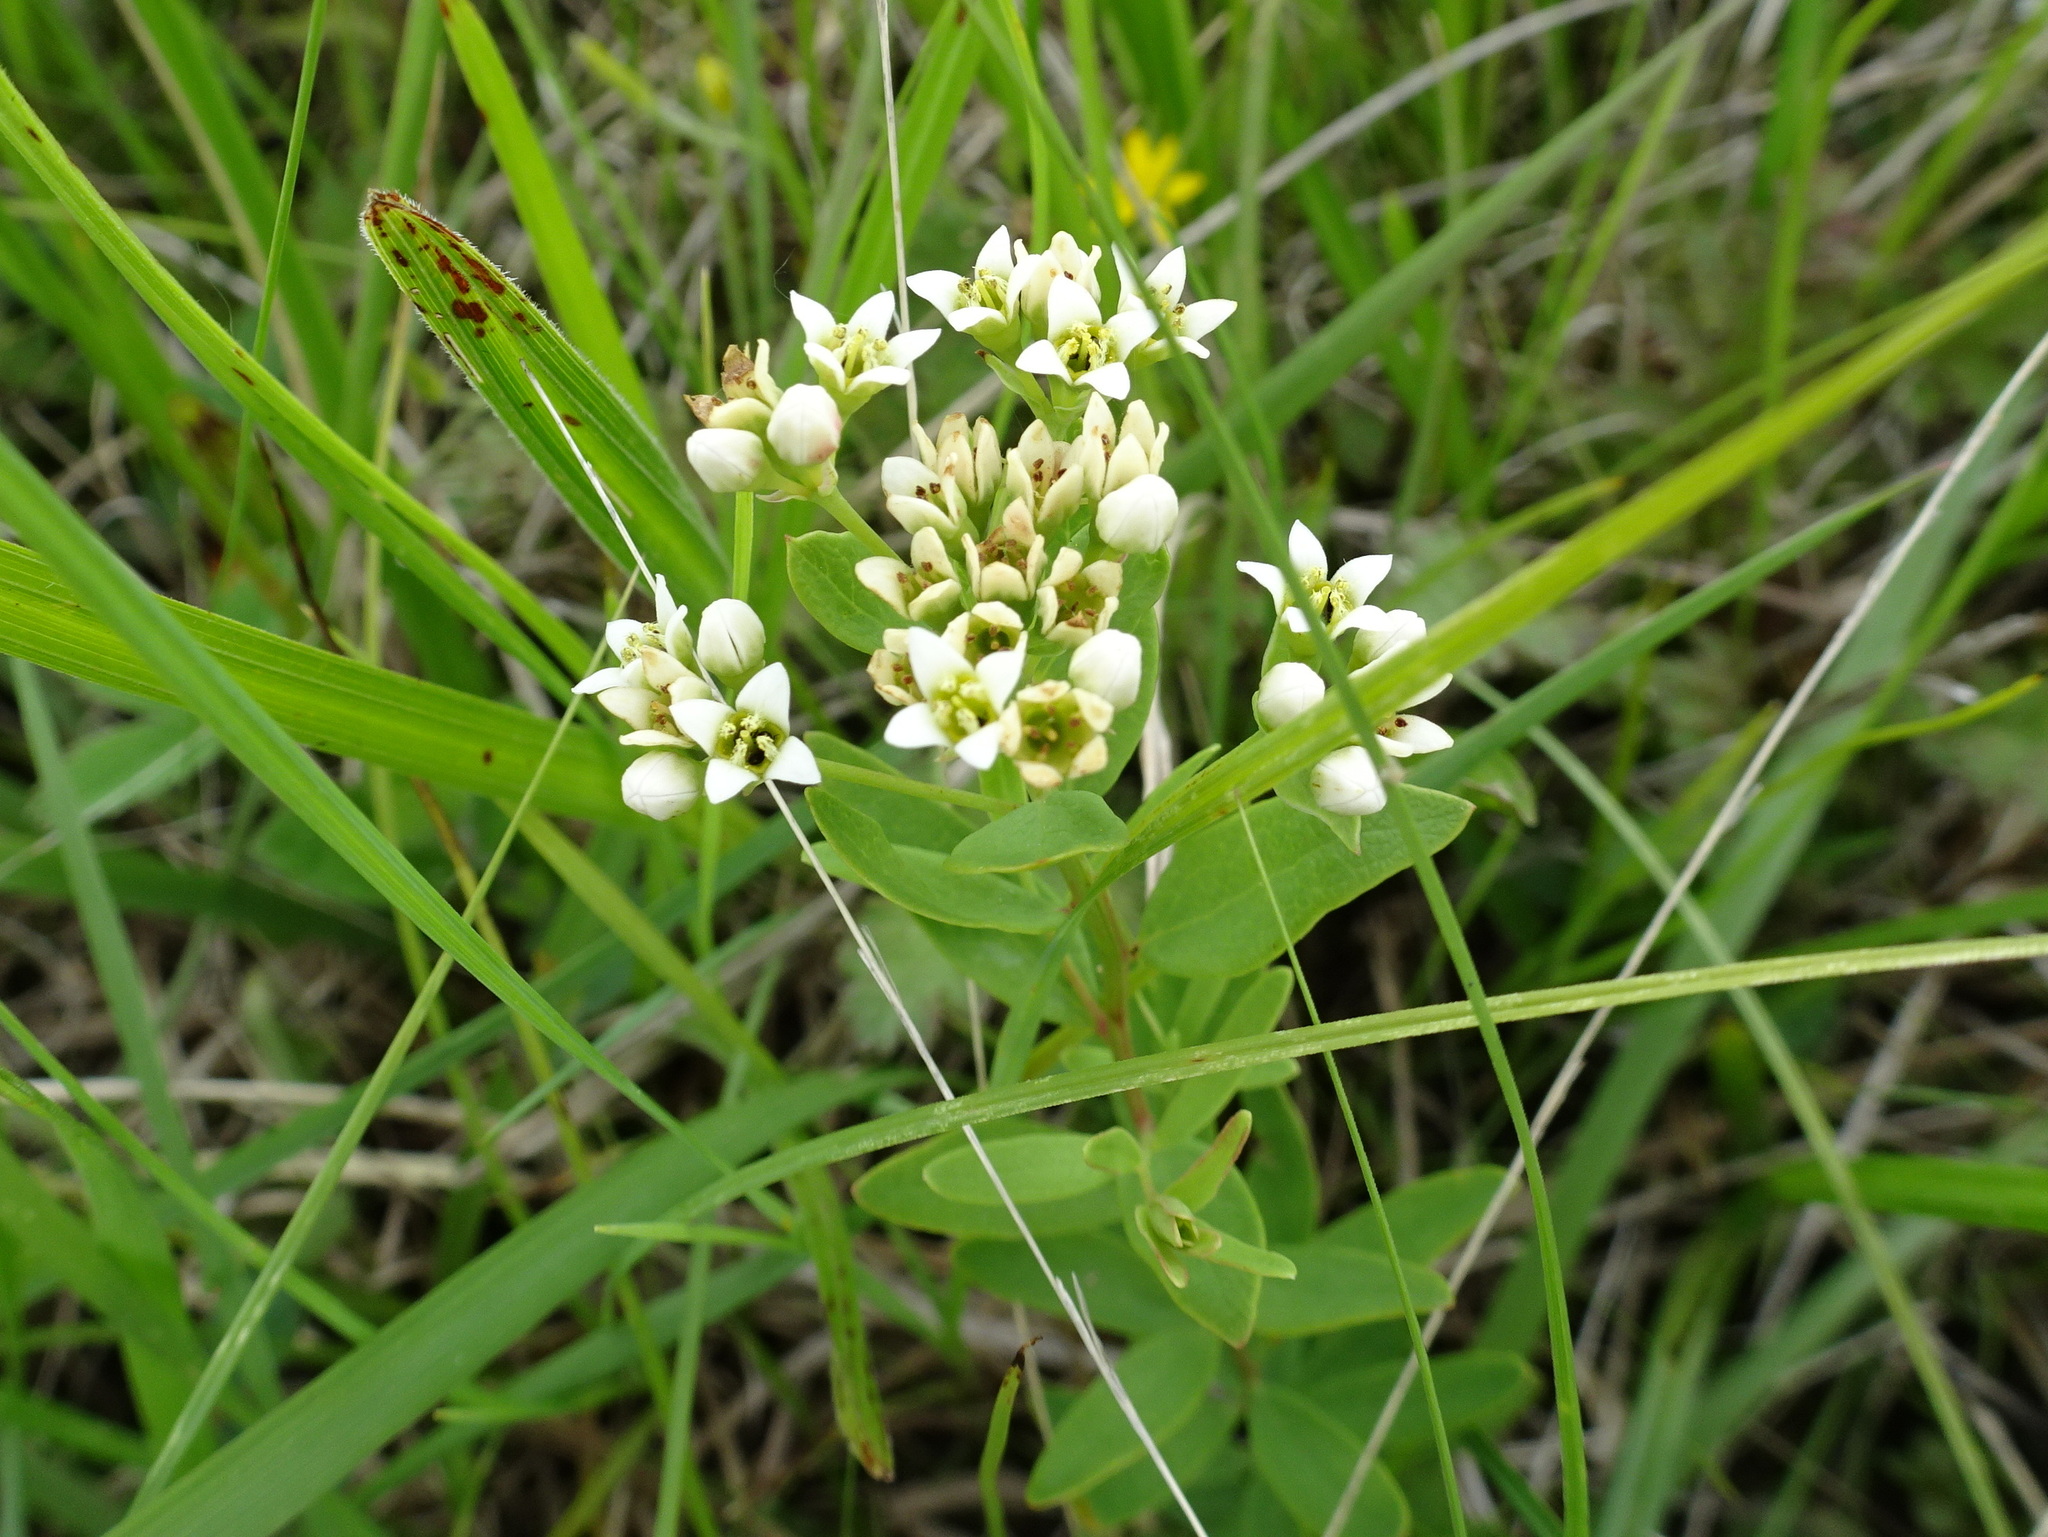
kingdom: Plantae
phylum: Tracheophyta
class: Magnoliopsida
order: Santalales
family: Comandraceae
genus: Comandra
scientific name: Comandra umbellata
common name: Bastard toadflax
